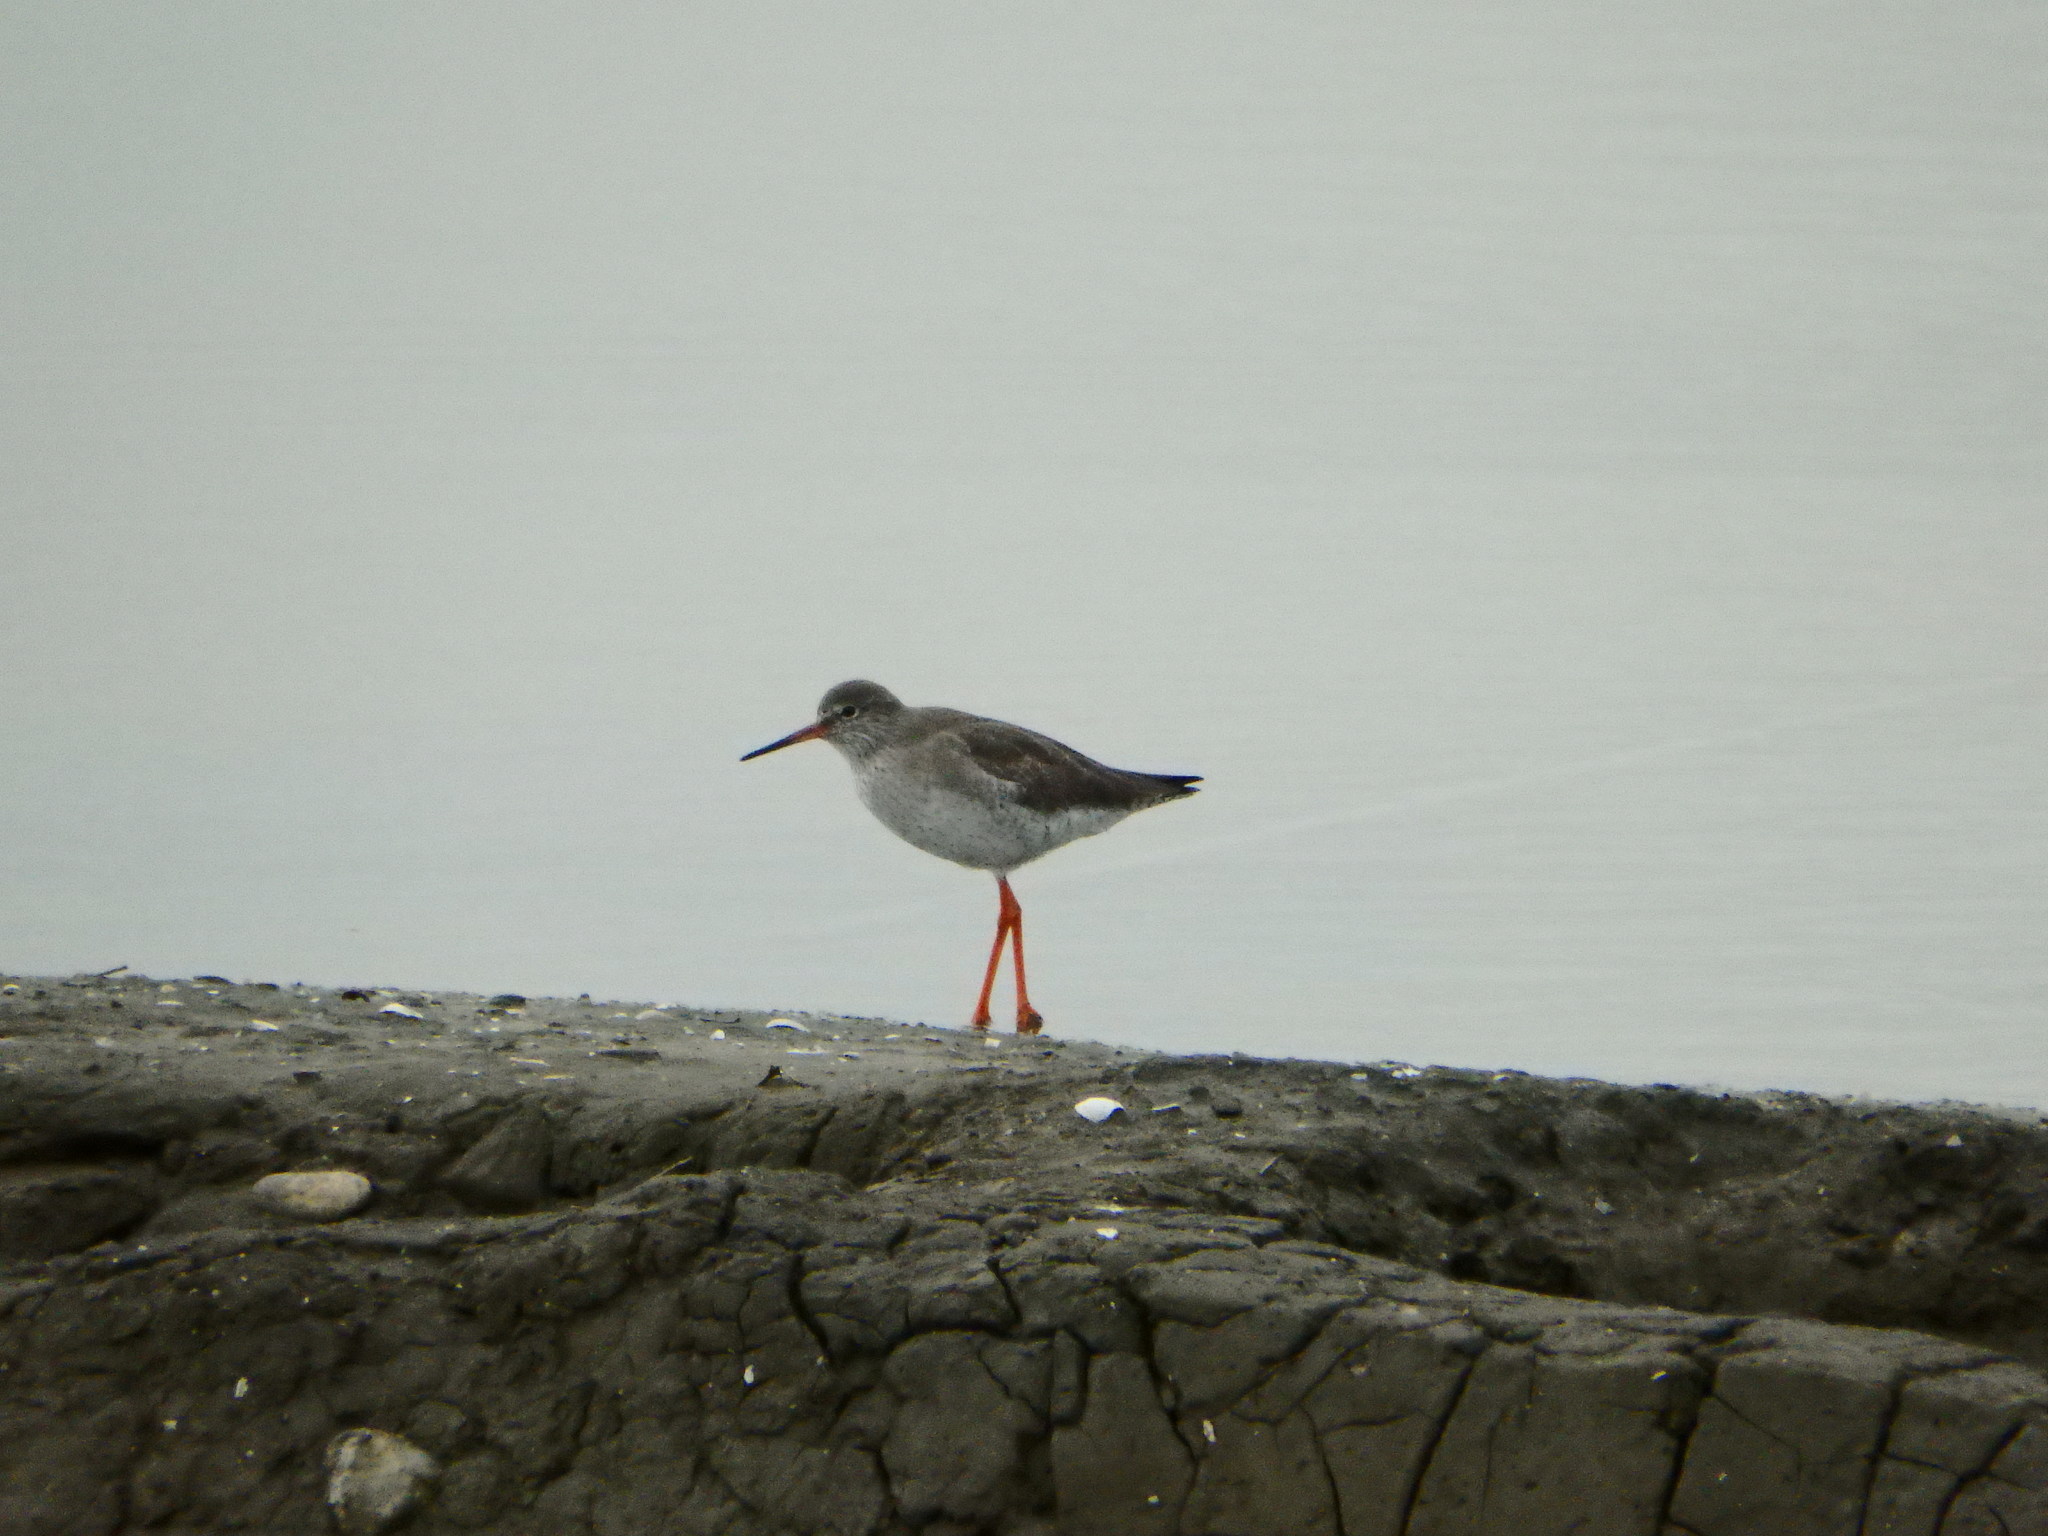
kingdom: Animalia
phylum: Chordata
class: Aves
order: Charadriiformes
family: Scolopacidae
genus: Tringa
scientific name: Tringa totanus
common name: Common redshank
